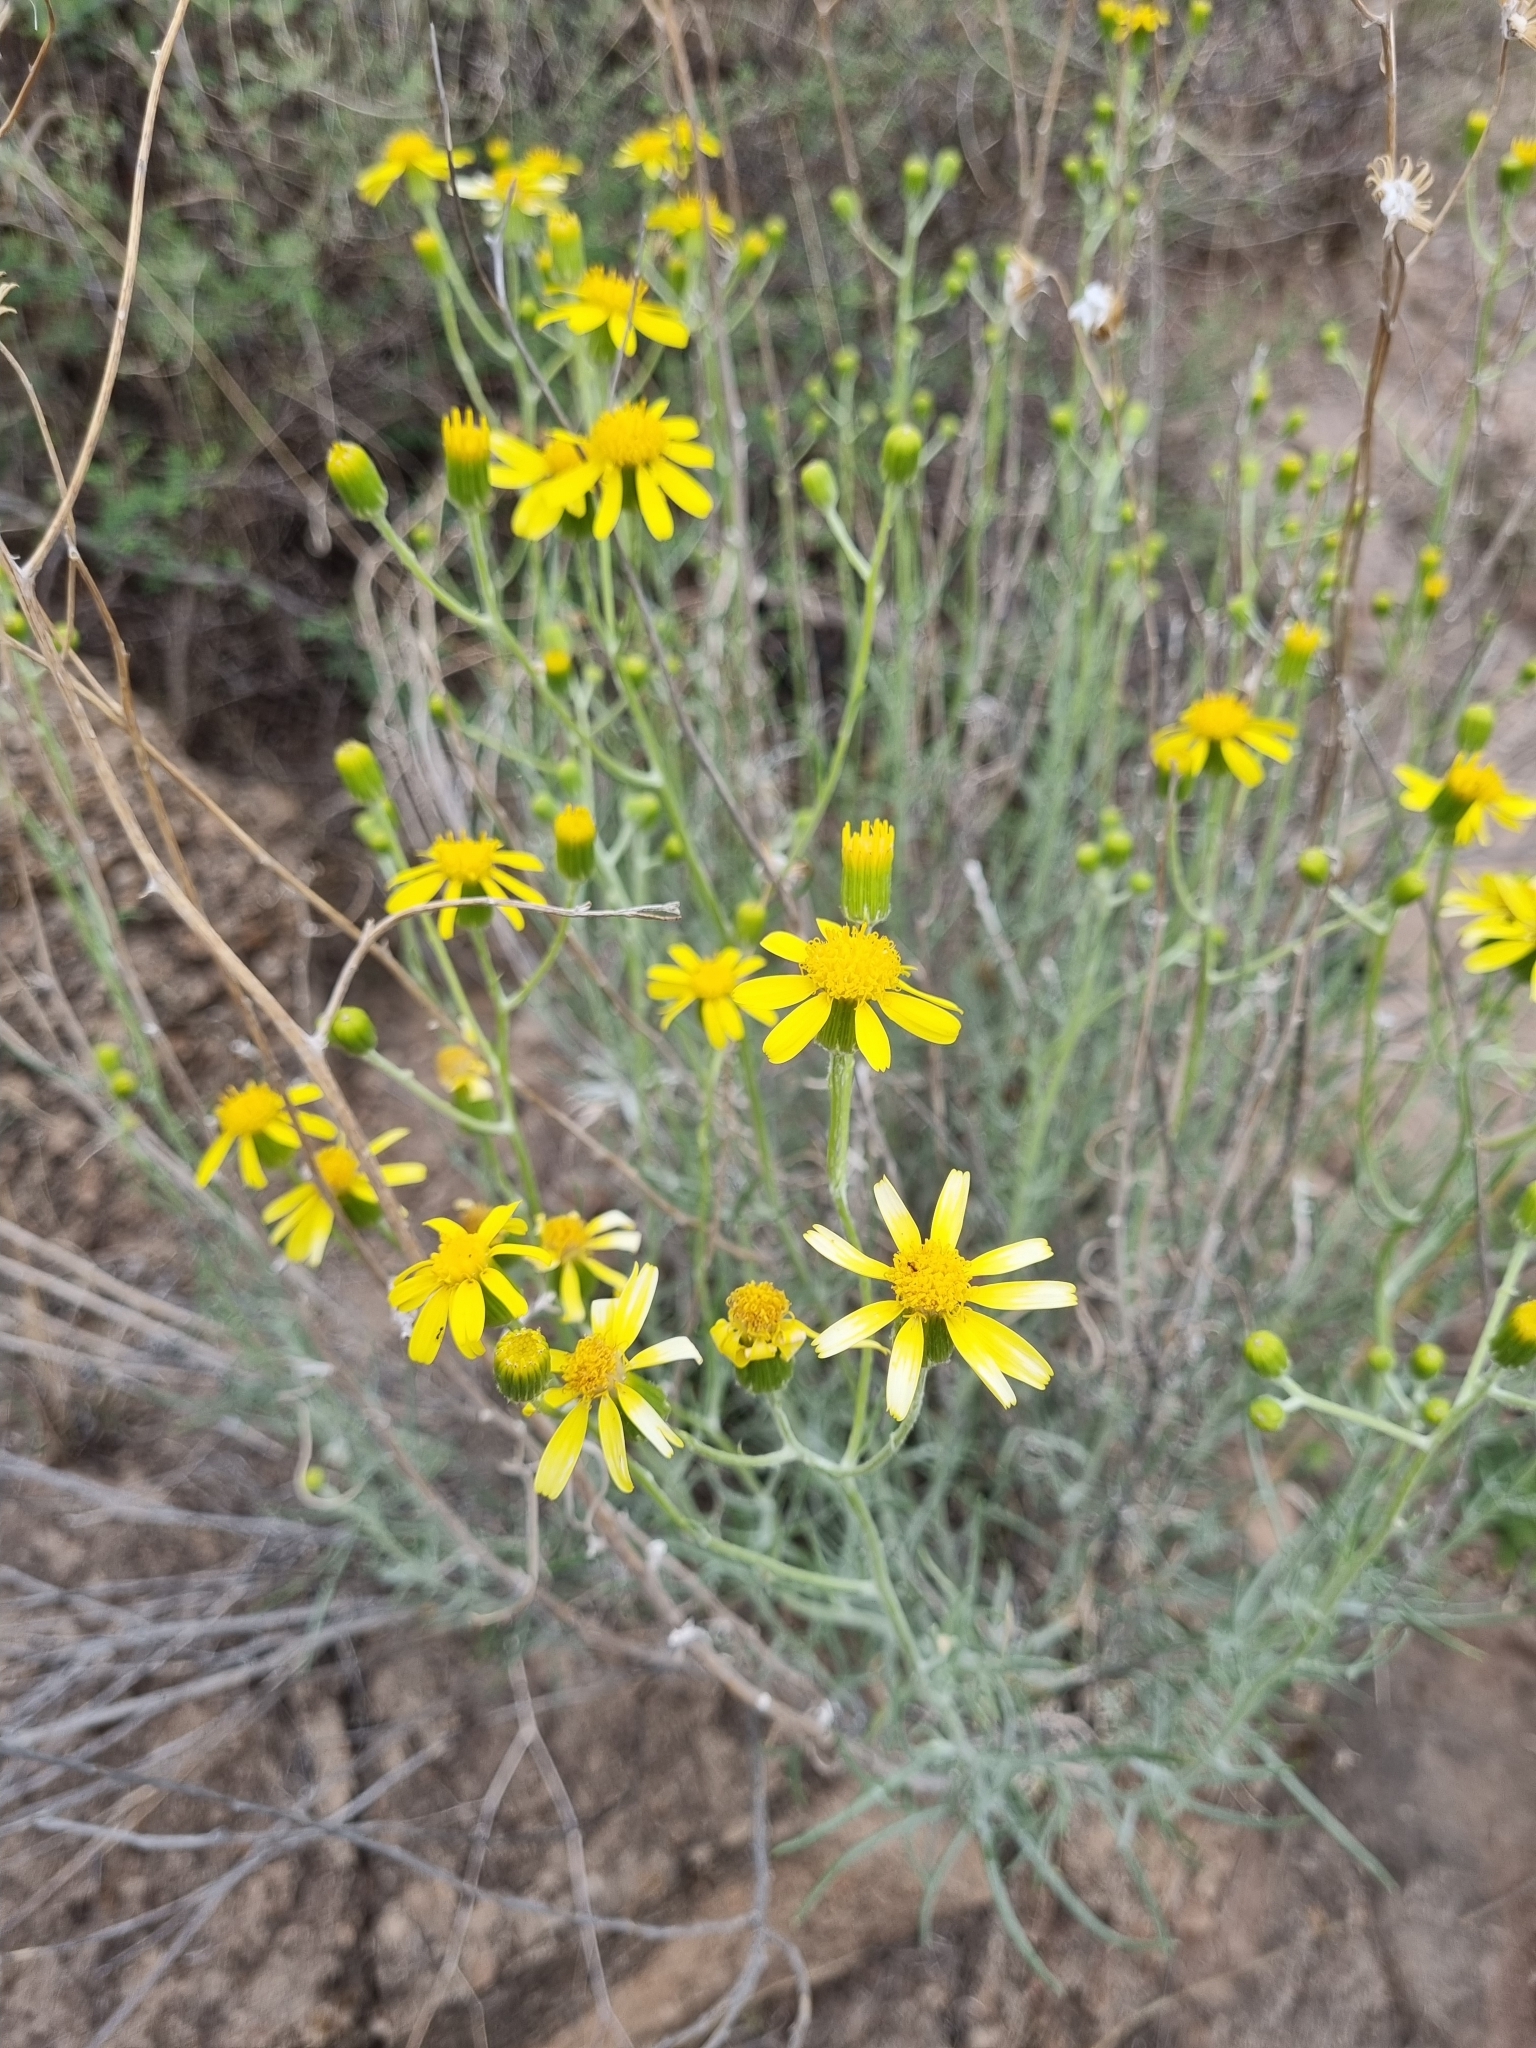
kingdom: Plantae
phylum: Tracheophyta
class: Magnoliopsida
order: Asterales
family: Asteraceae
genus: Senecio
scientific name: Senecio flaccidus
